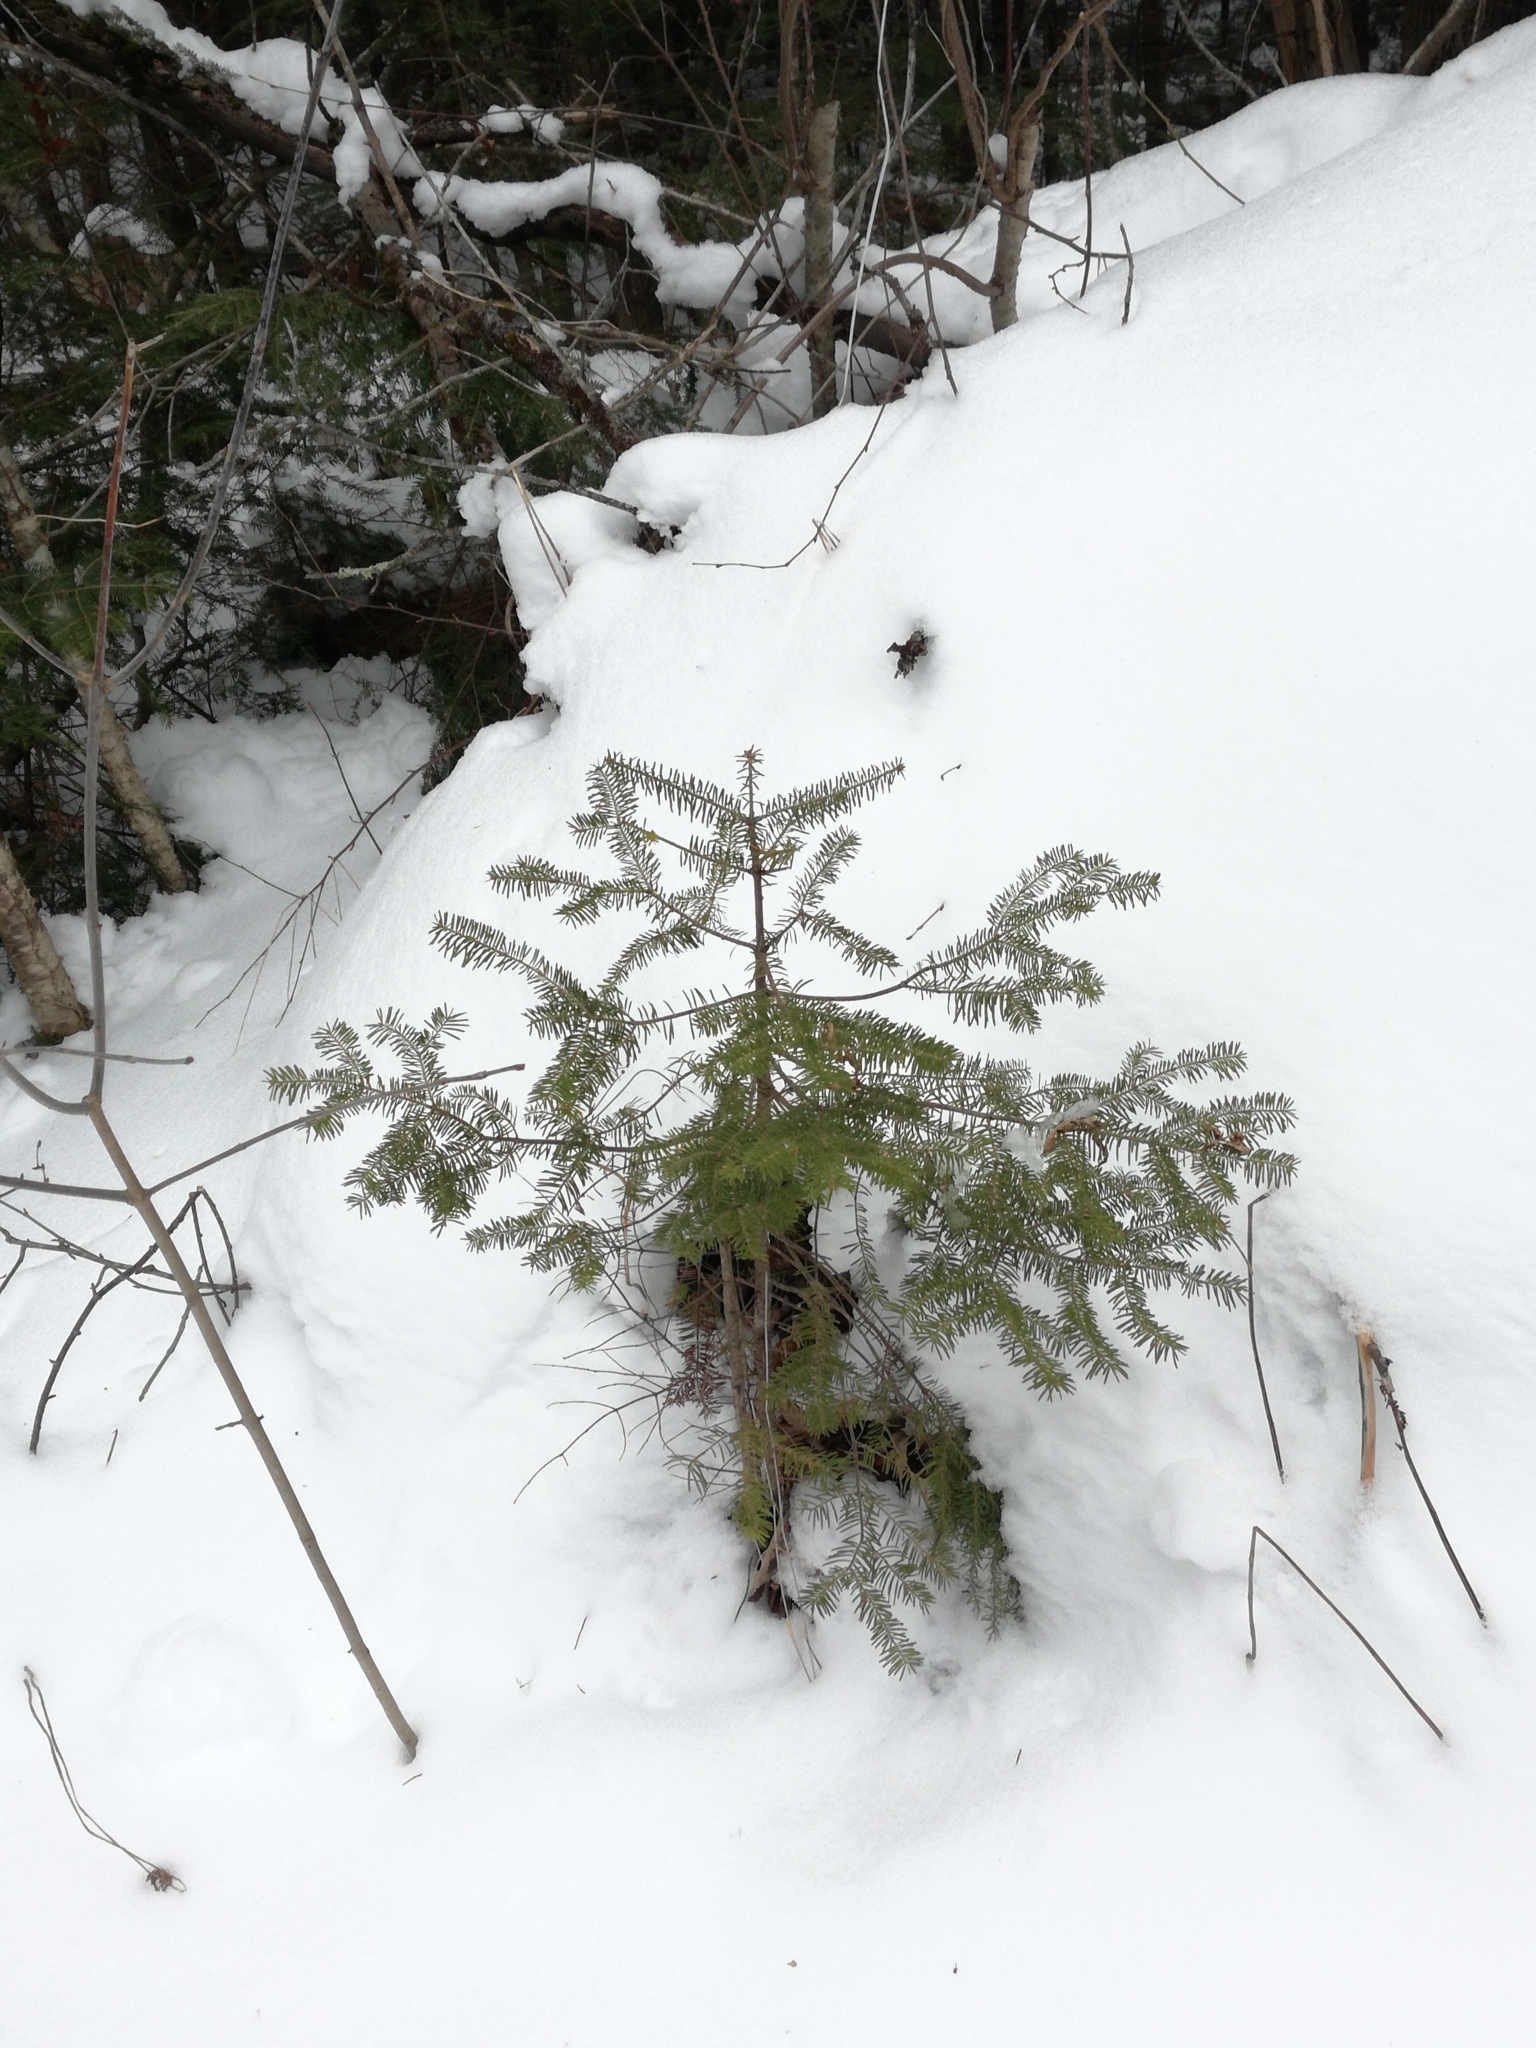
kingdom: Plantae
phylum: Tracheophyta
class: Pinopsida
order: Pinales
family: Pinaceae
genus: Abies
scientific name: Abies balsamea
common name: Balsam fir
